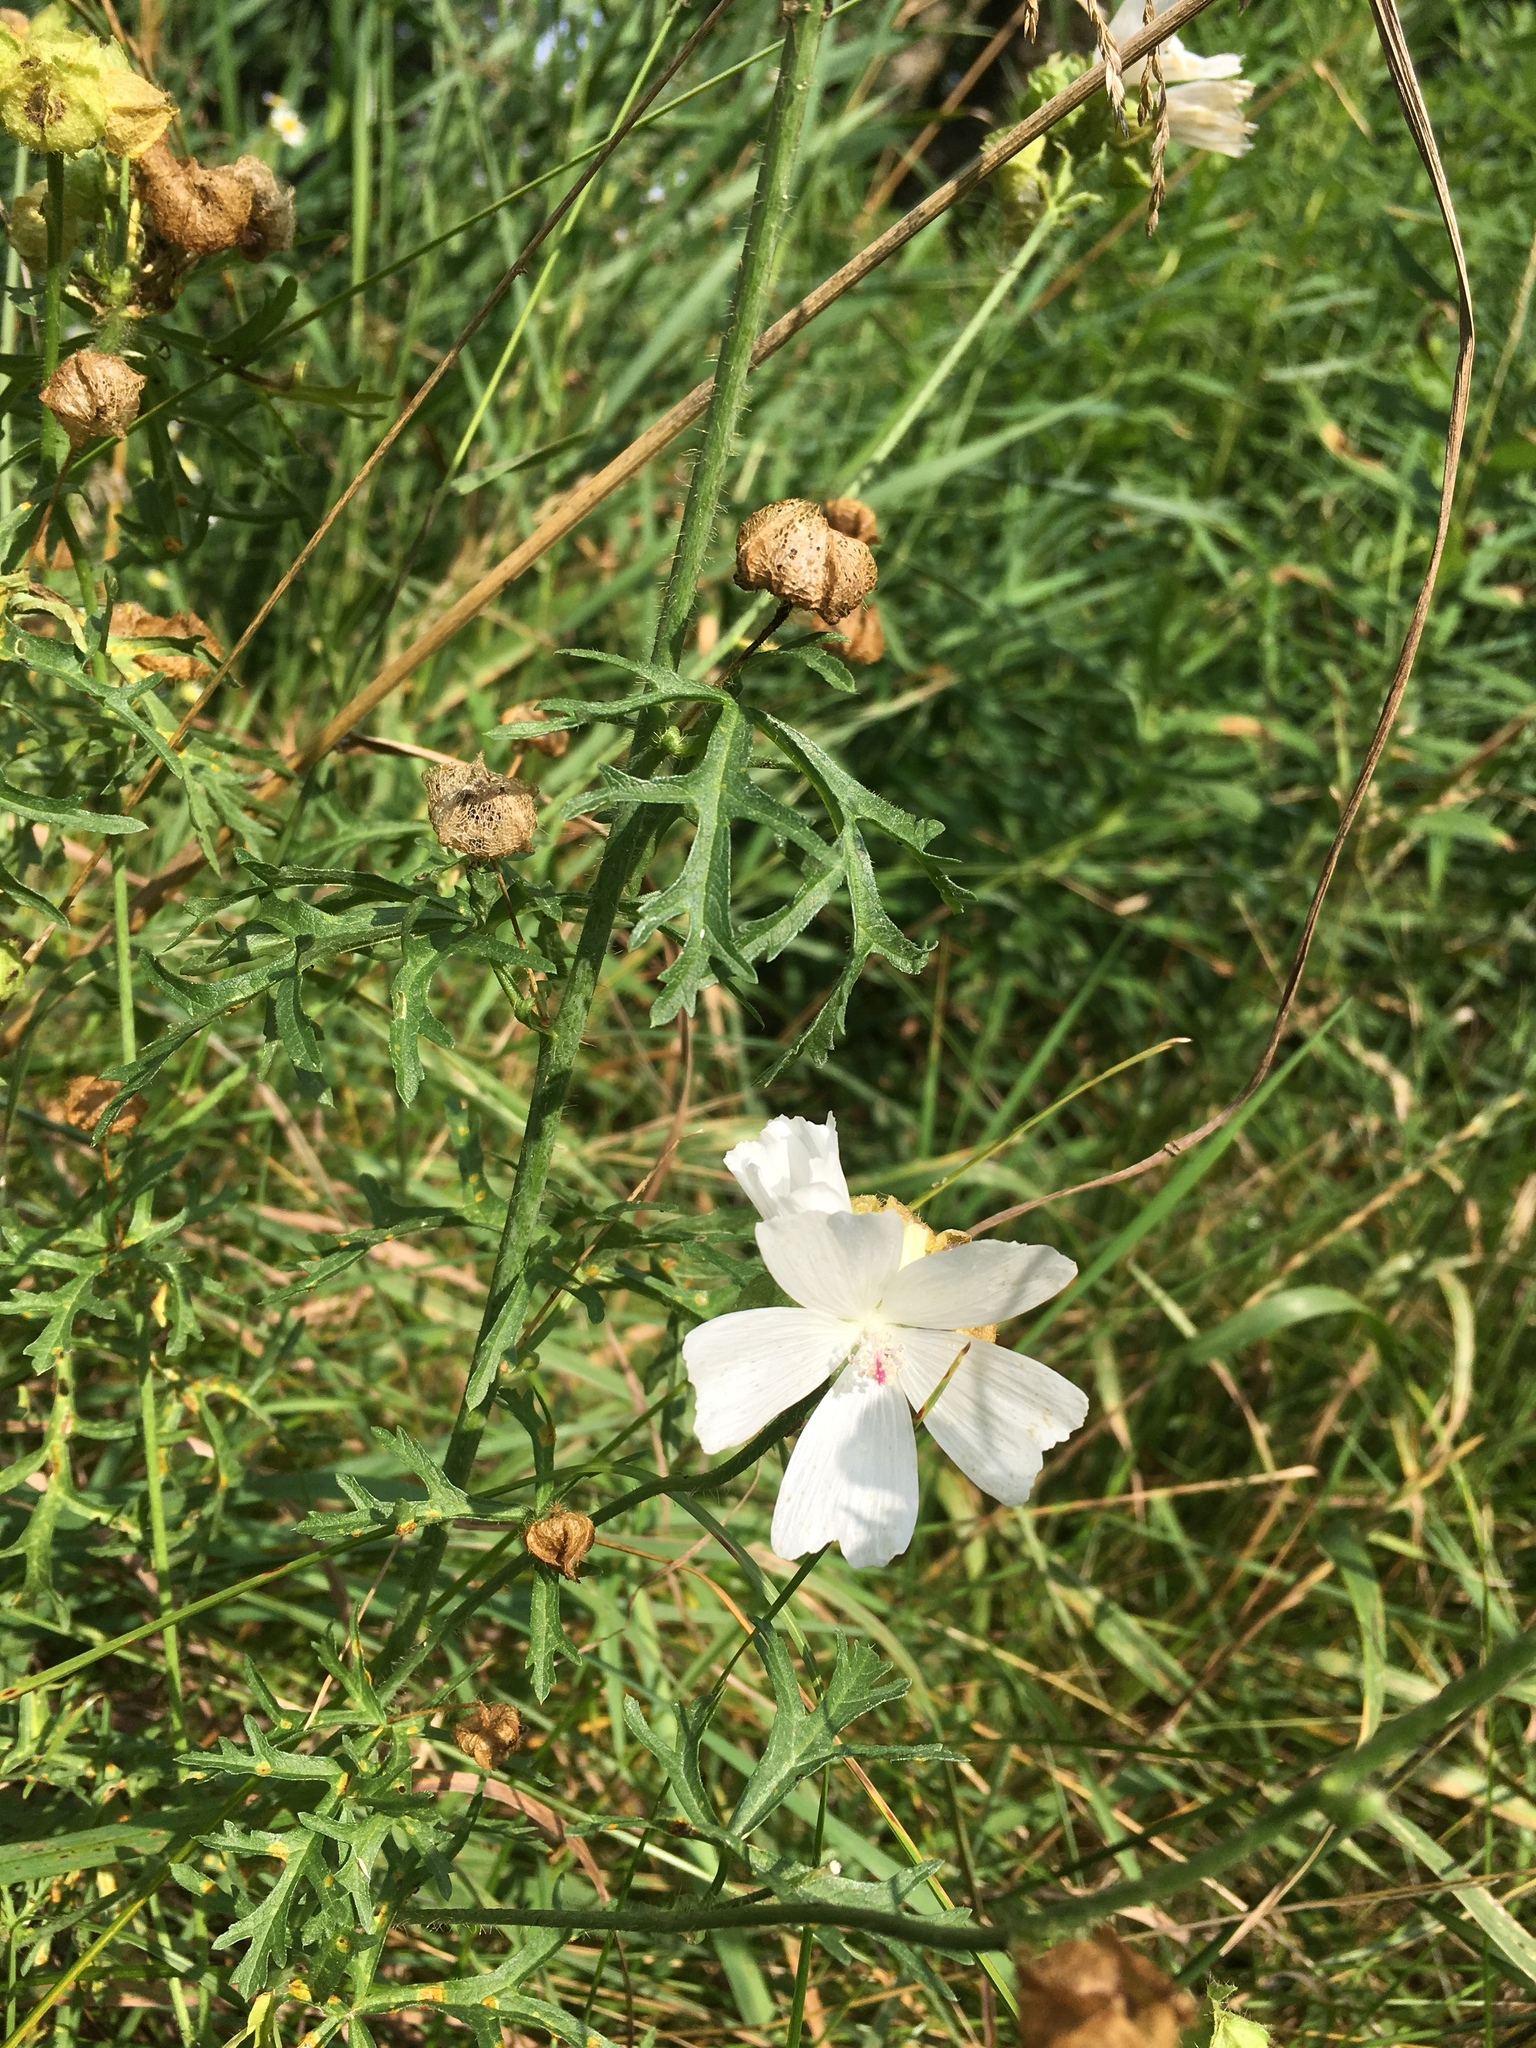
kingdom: Plantae
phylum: Tracheophyta
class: Magnoliopsida
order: Malvales
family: Malvaceae
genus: Malva
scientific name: Malva moschata
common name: Musk mallow
